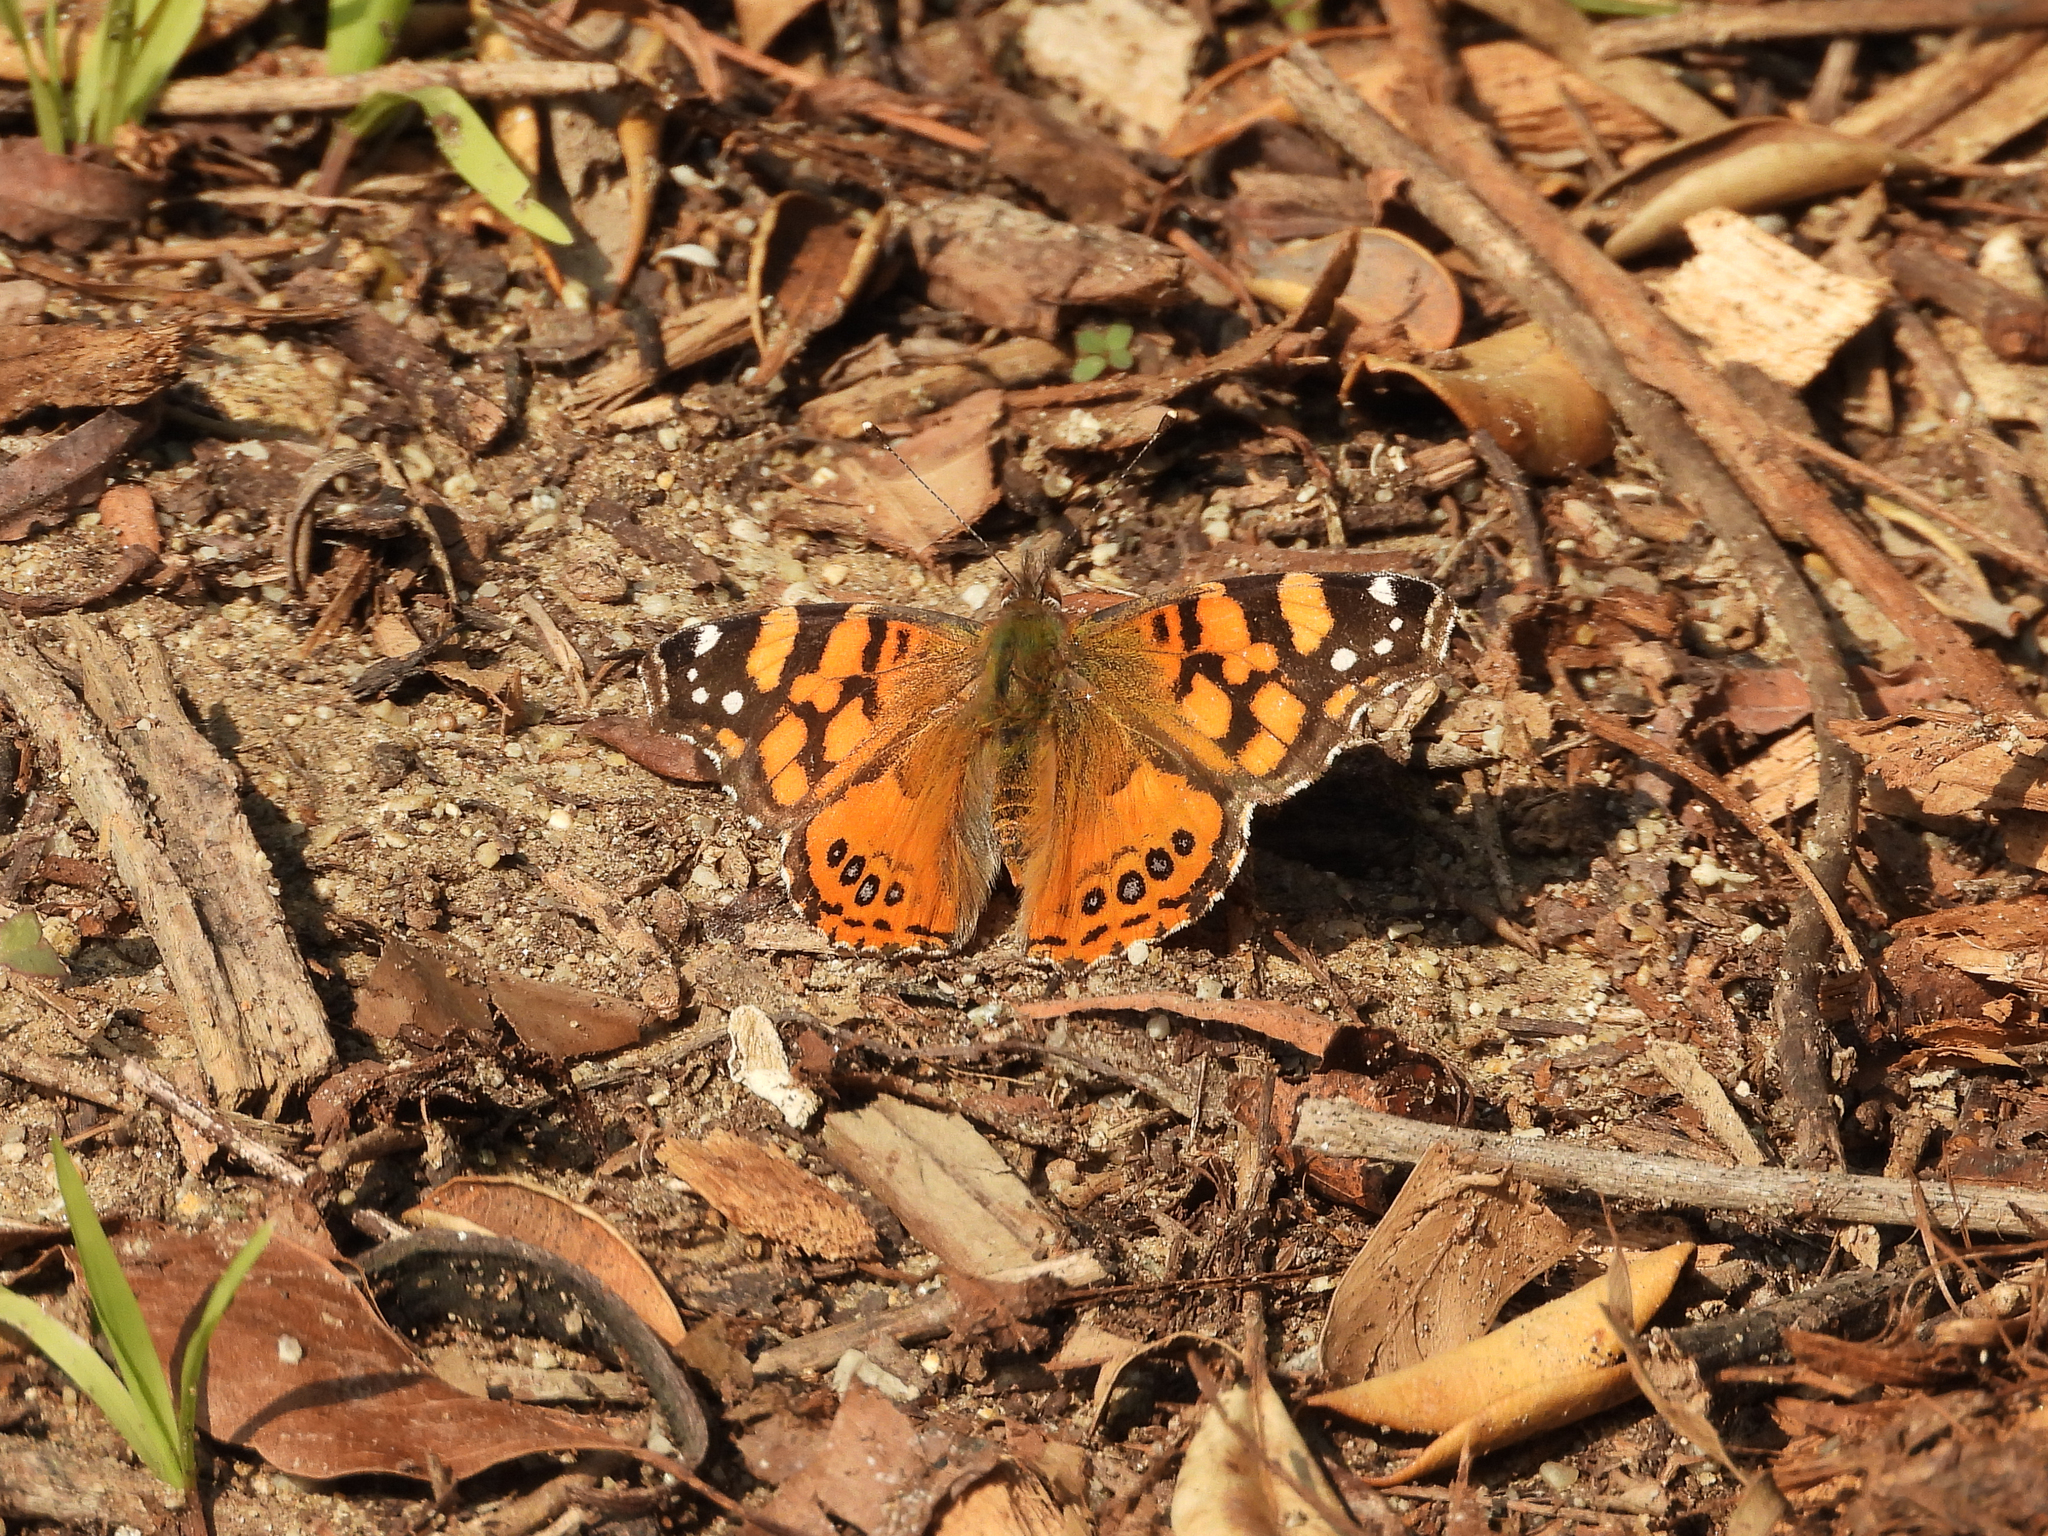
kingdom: Animalia
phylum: Arthropoda
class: Insecta
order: Lepidoptera
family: Nymphalidae
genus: Vanessa
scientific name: Vanessa annabella
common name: West coast lady
